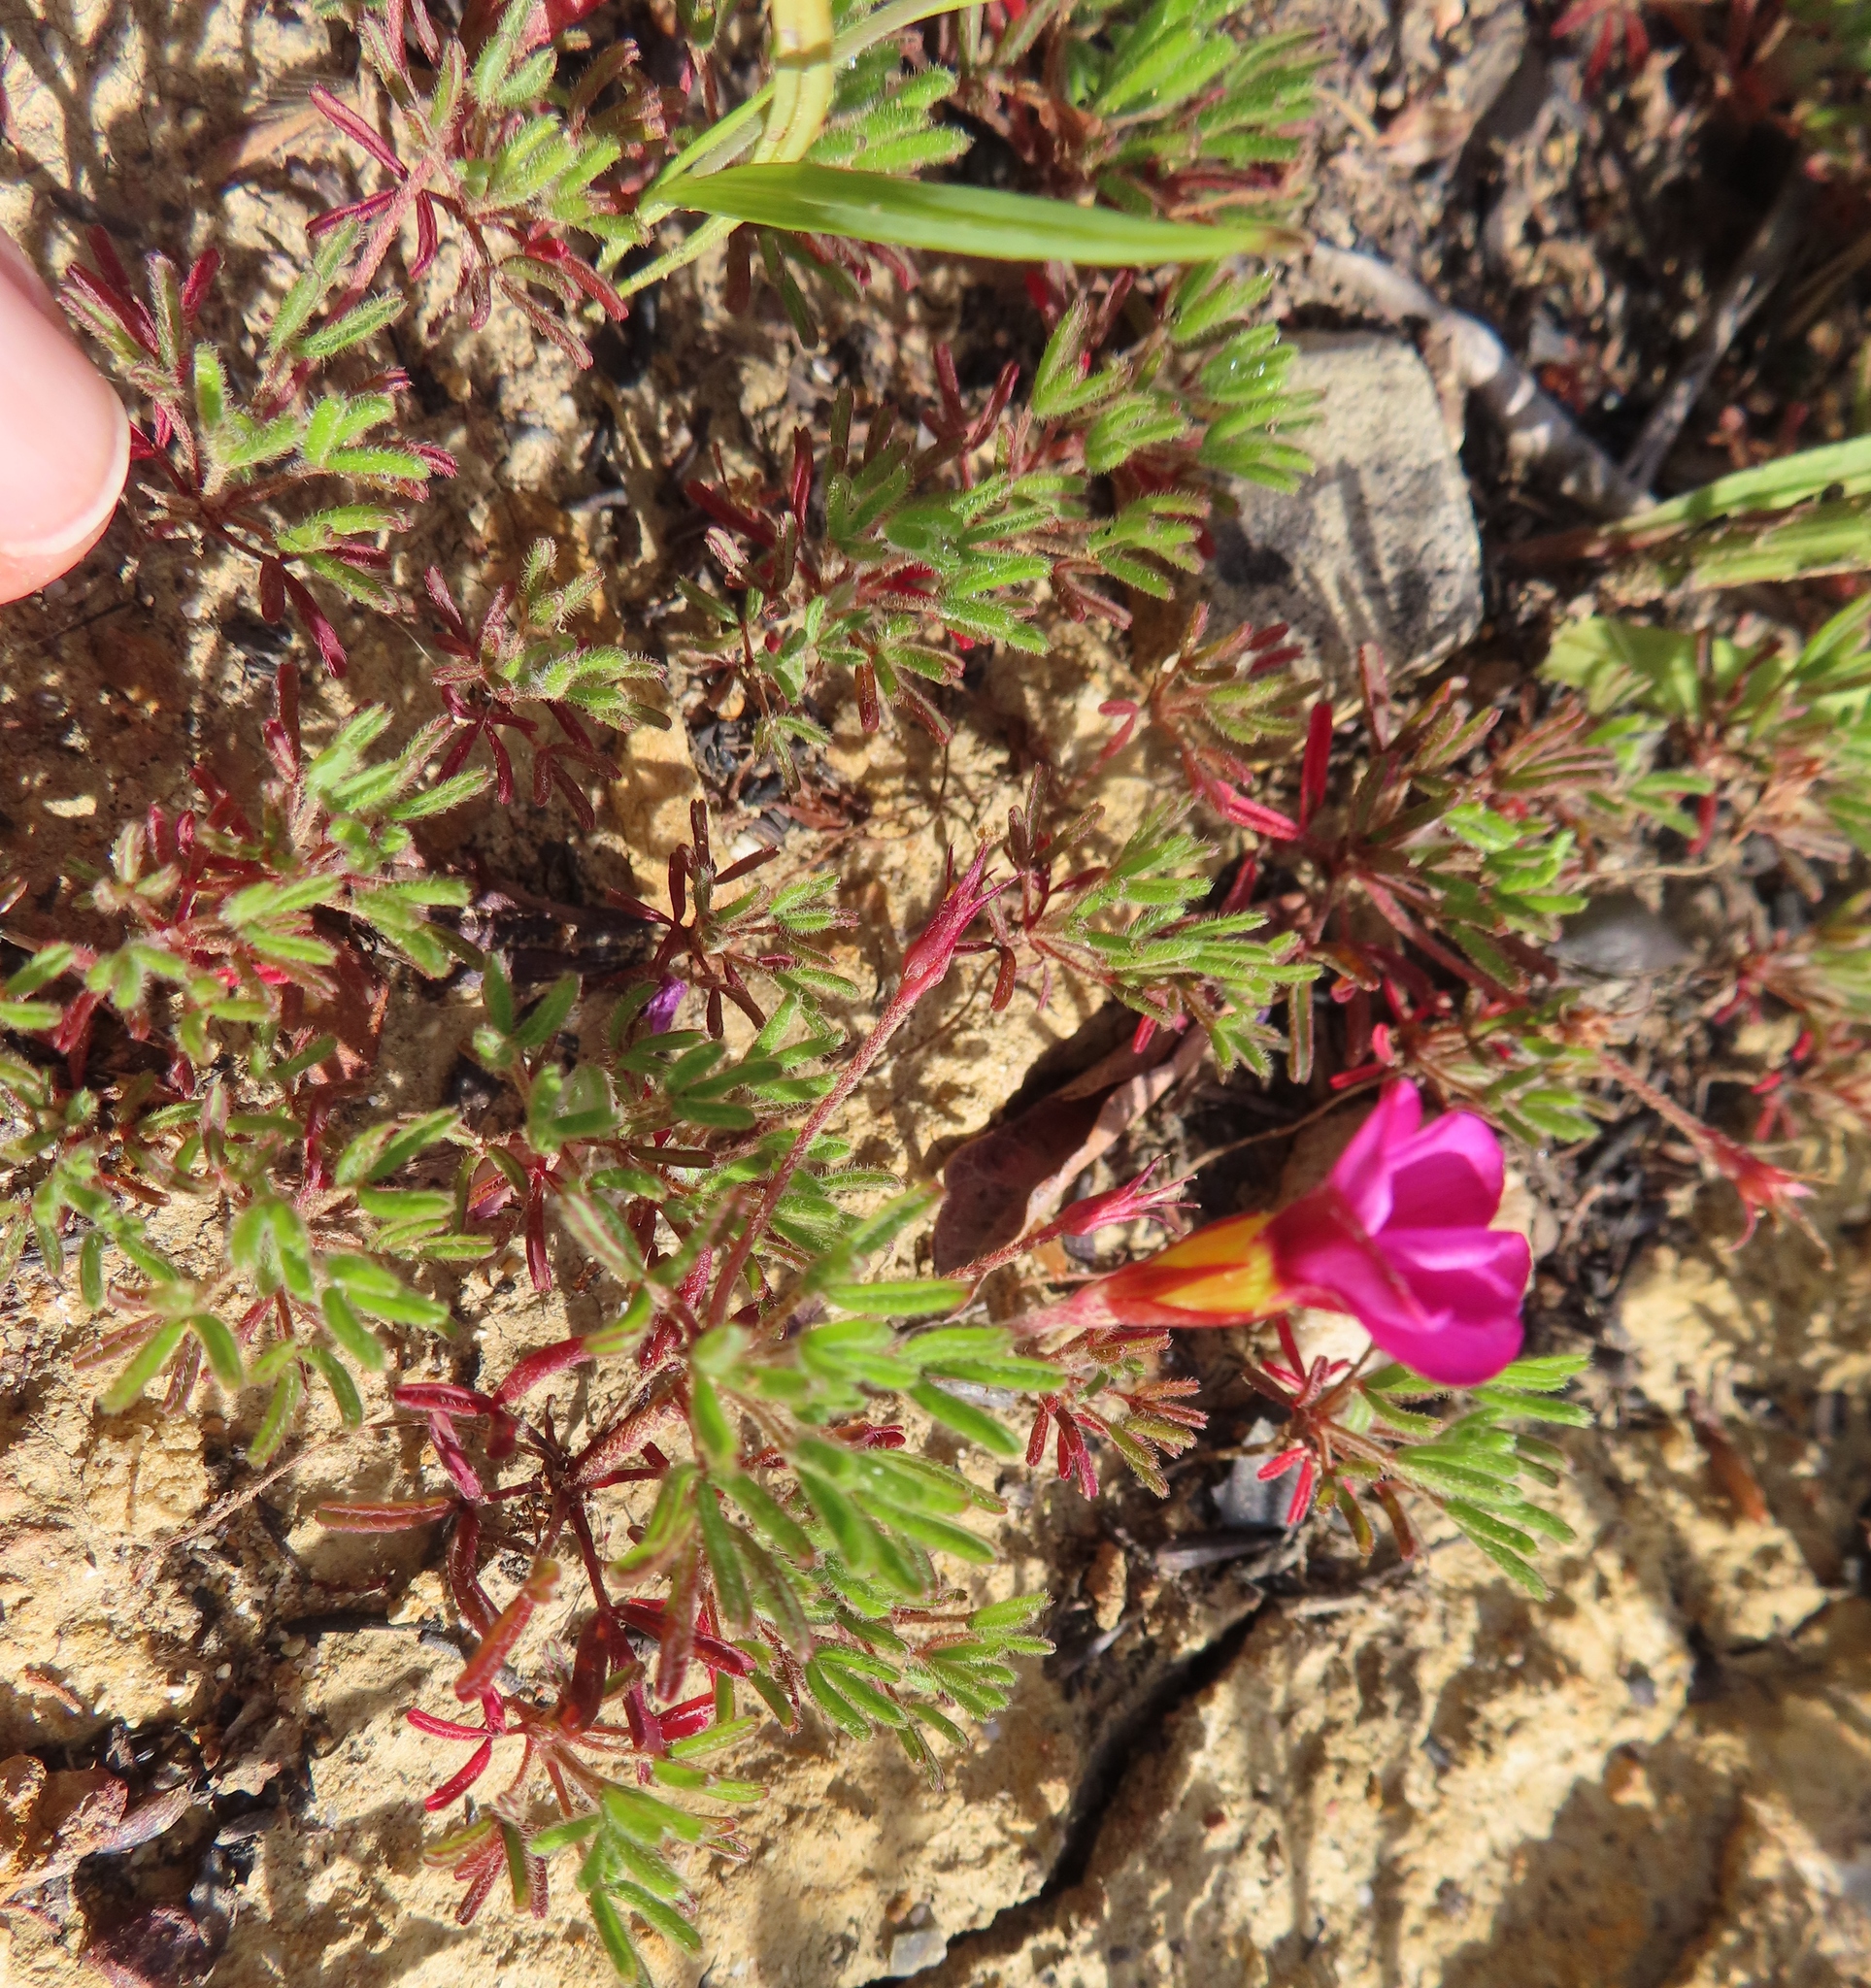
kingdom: Plantae
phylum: Tracheophyta
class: Magnoliopsida
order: Oxalidales
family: Oxalidaceae
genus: Oxalis
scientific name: Oxalis glabra
